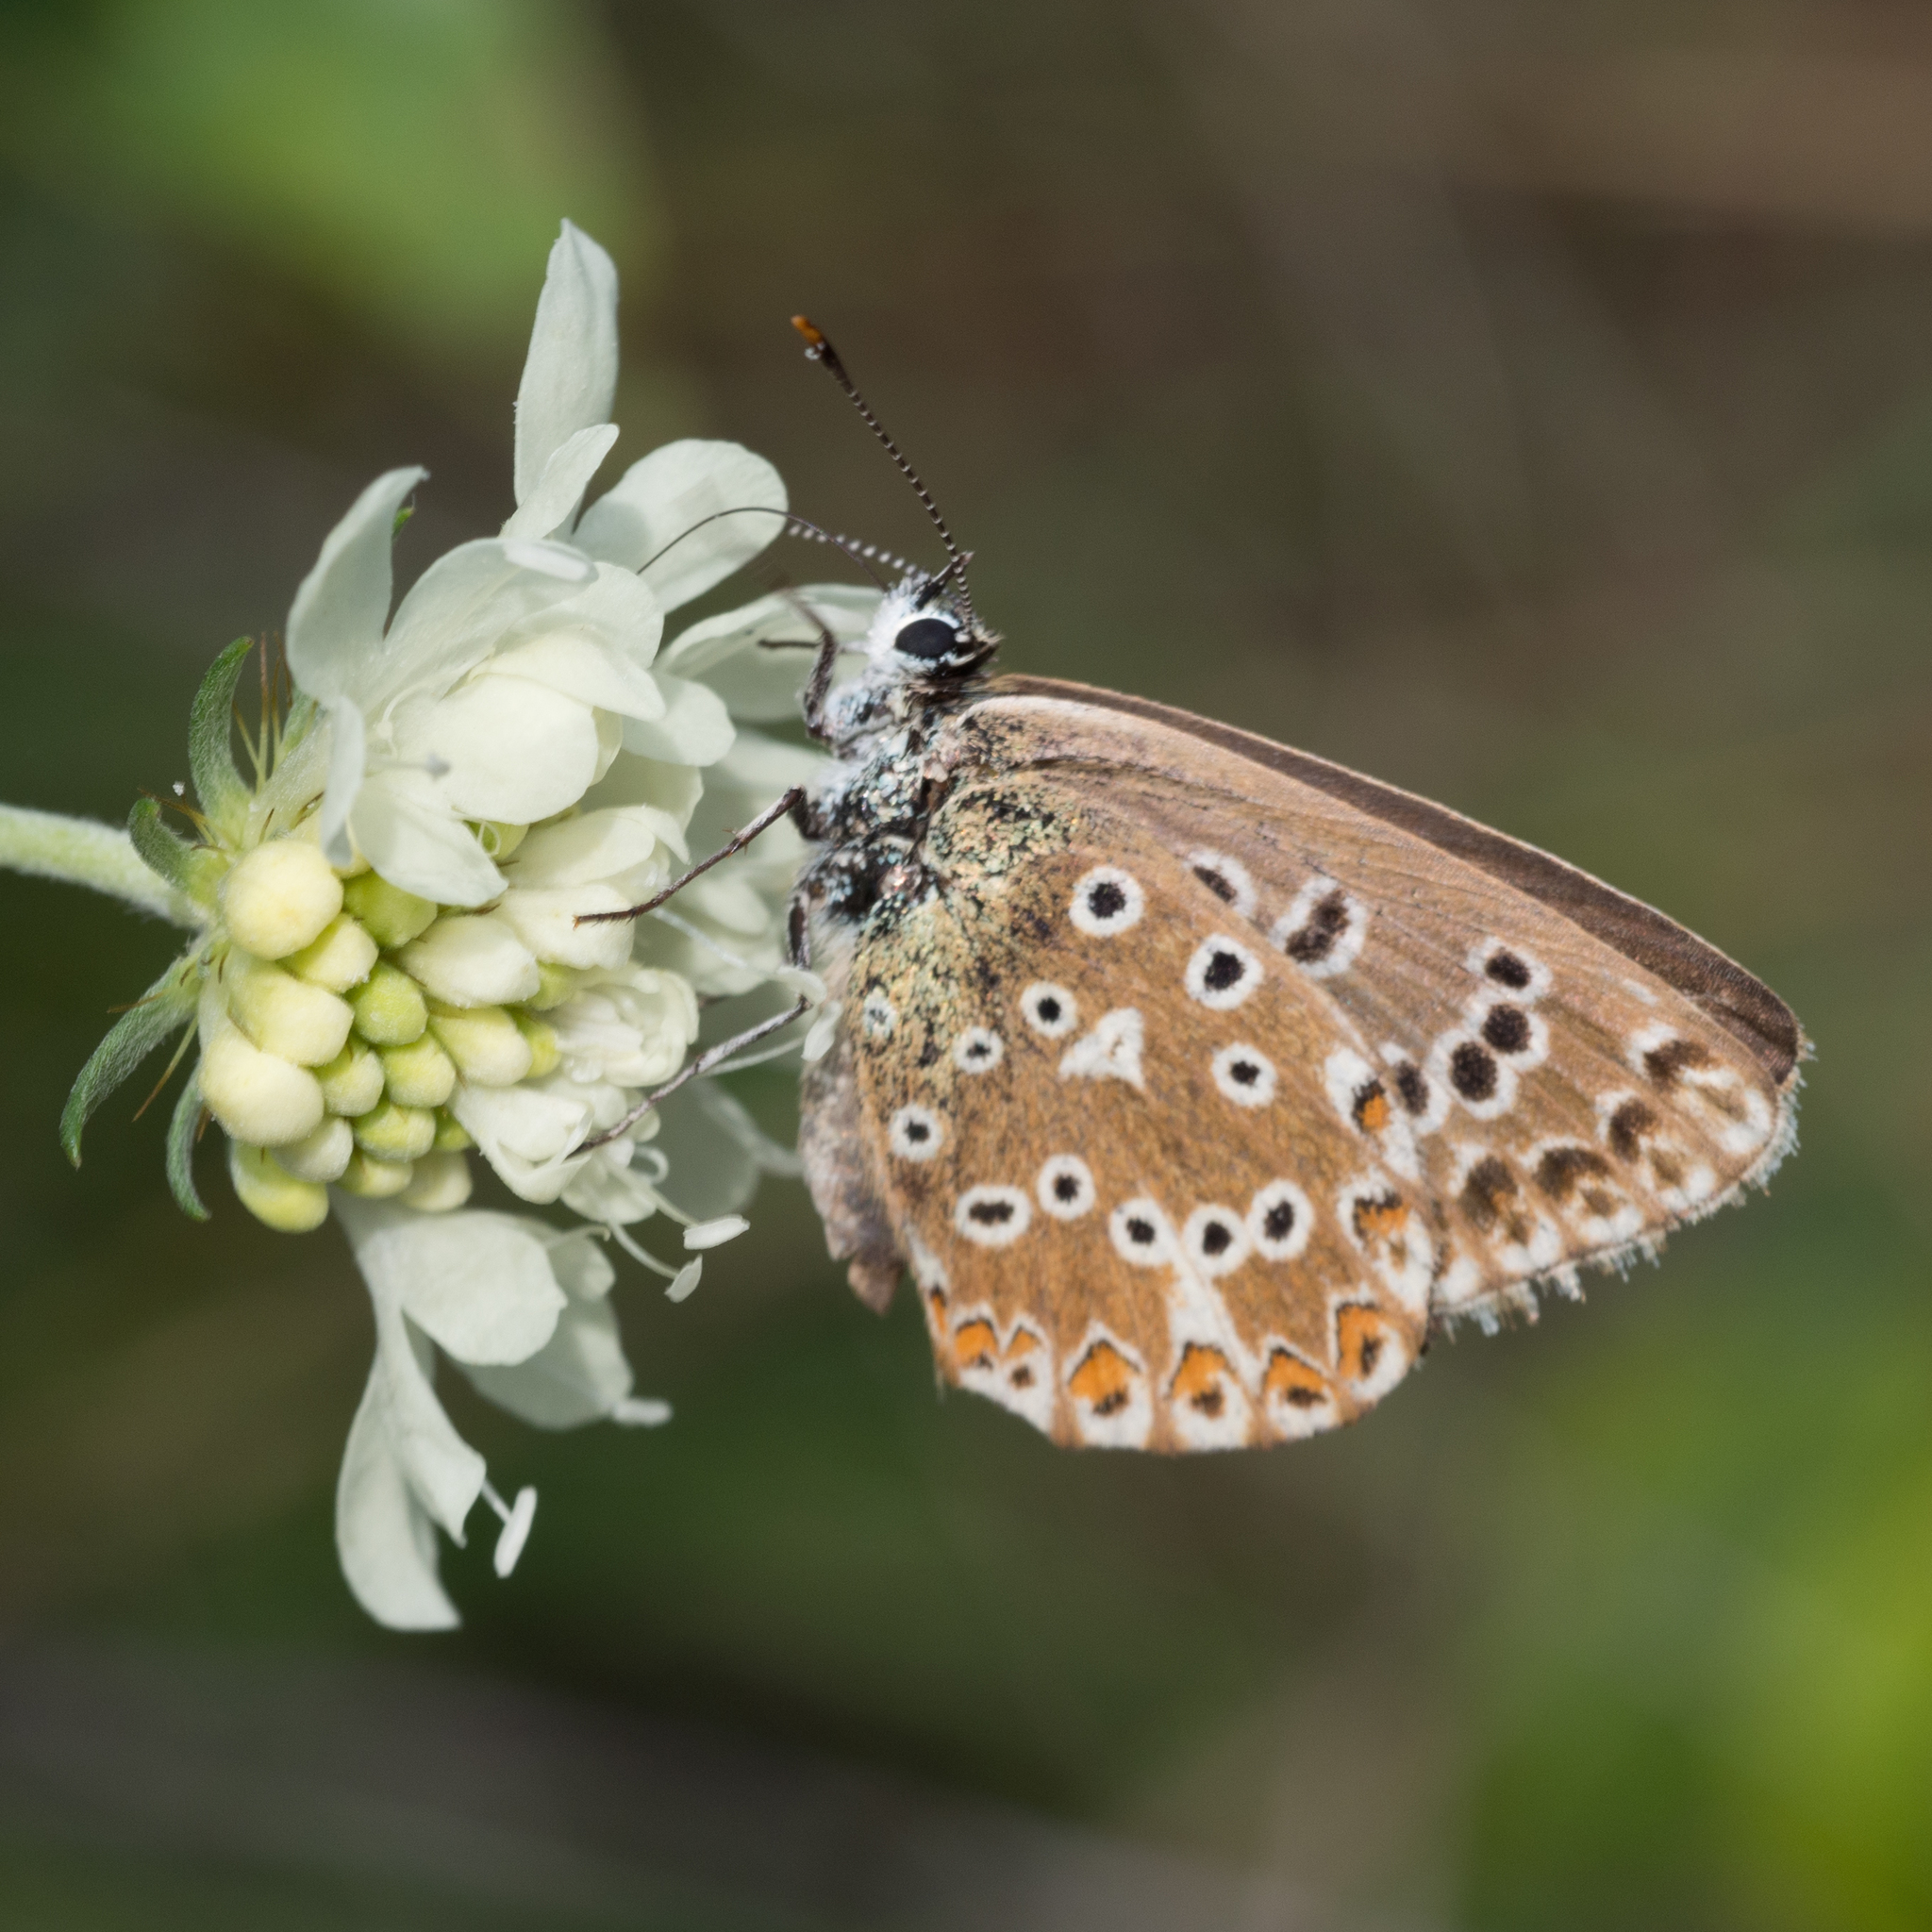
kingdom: Animalia
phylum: Arthropoda
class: Insecta
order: Lepidoptera
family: Lycaenidae
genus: Lysandra
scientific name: Lysandra coridon
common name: Chalkhill blue
